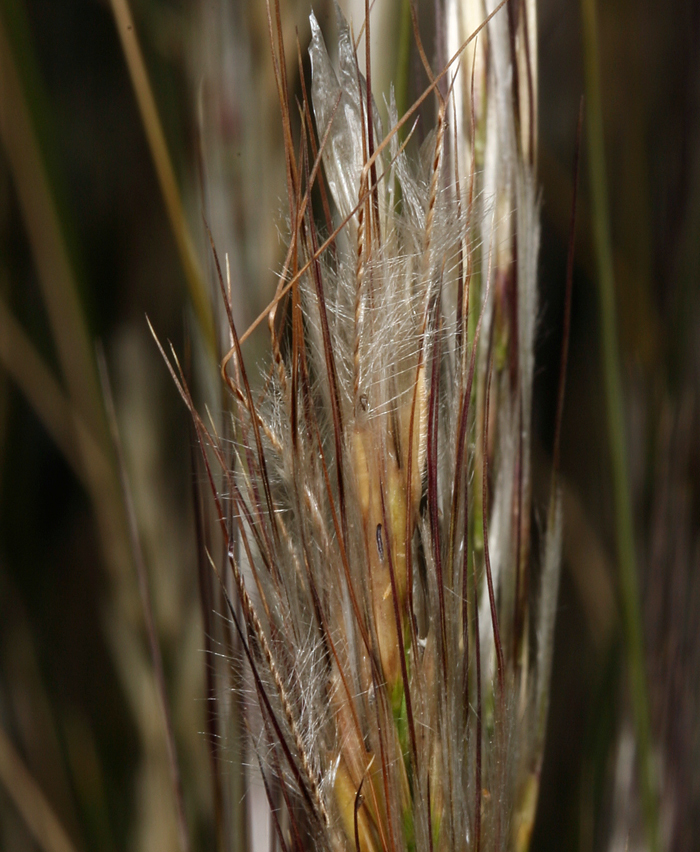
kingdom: Plantae
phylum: Tracheophyta
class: Liliopsida
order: Poales
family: Poaceae
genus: Pappostipa
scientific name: Pappostipa speciosa
